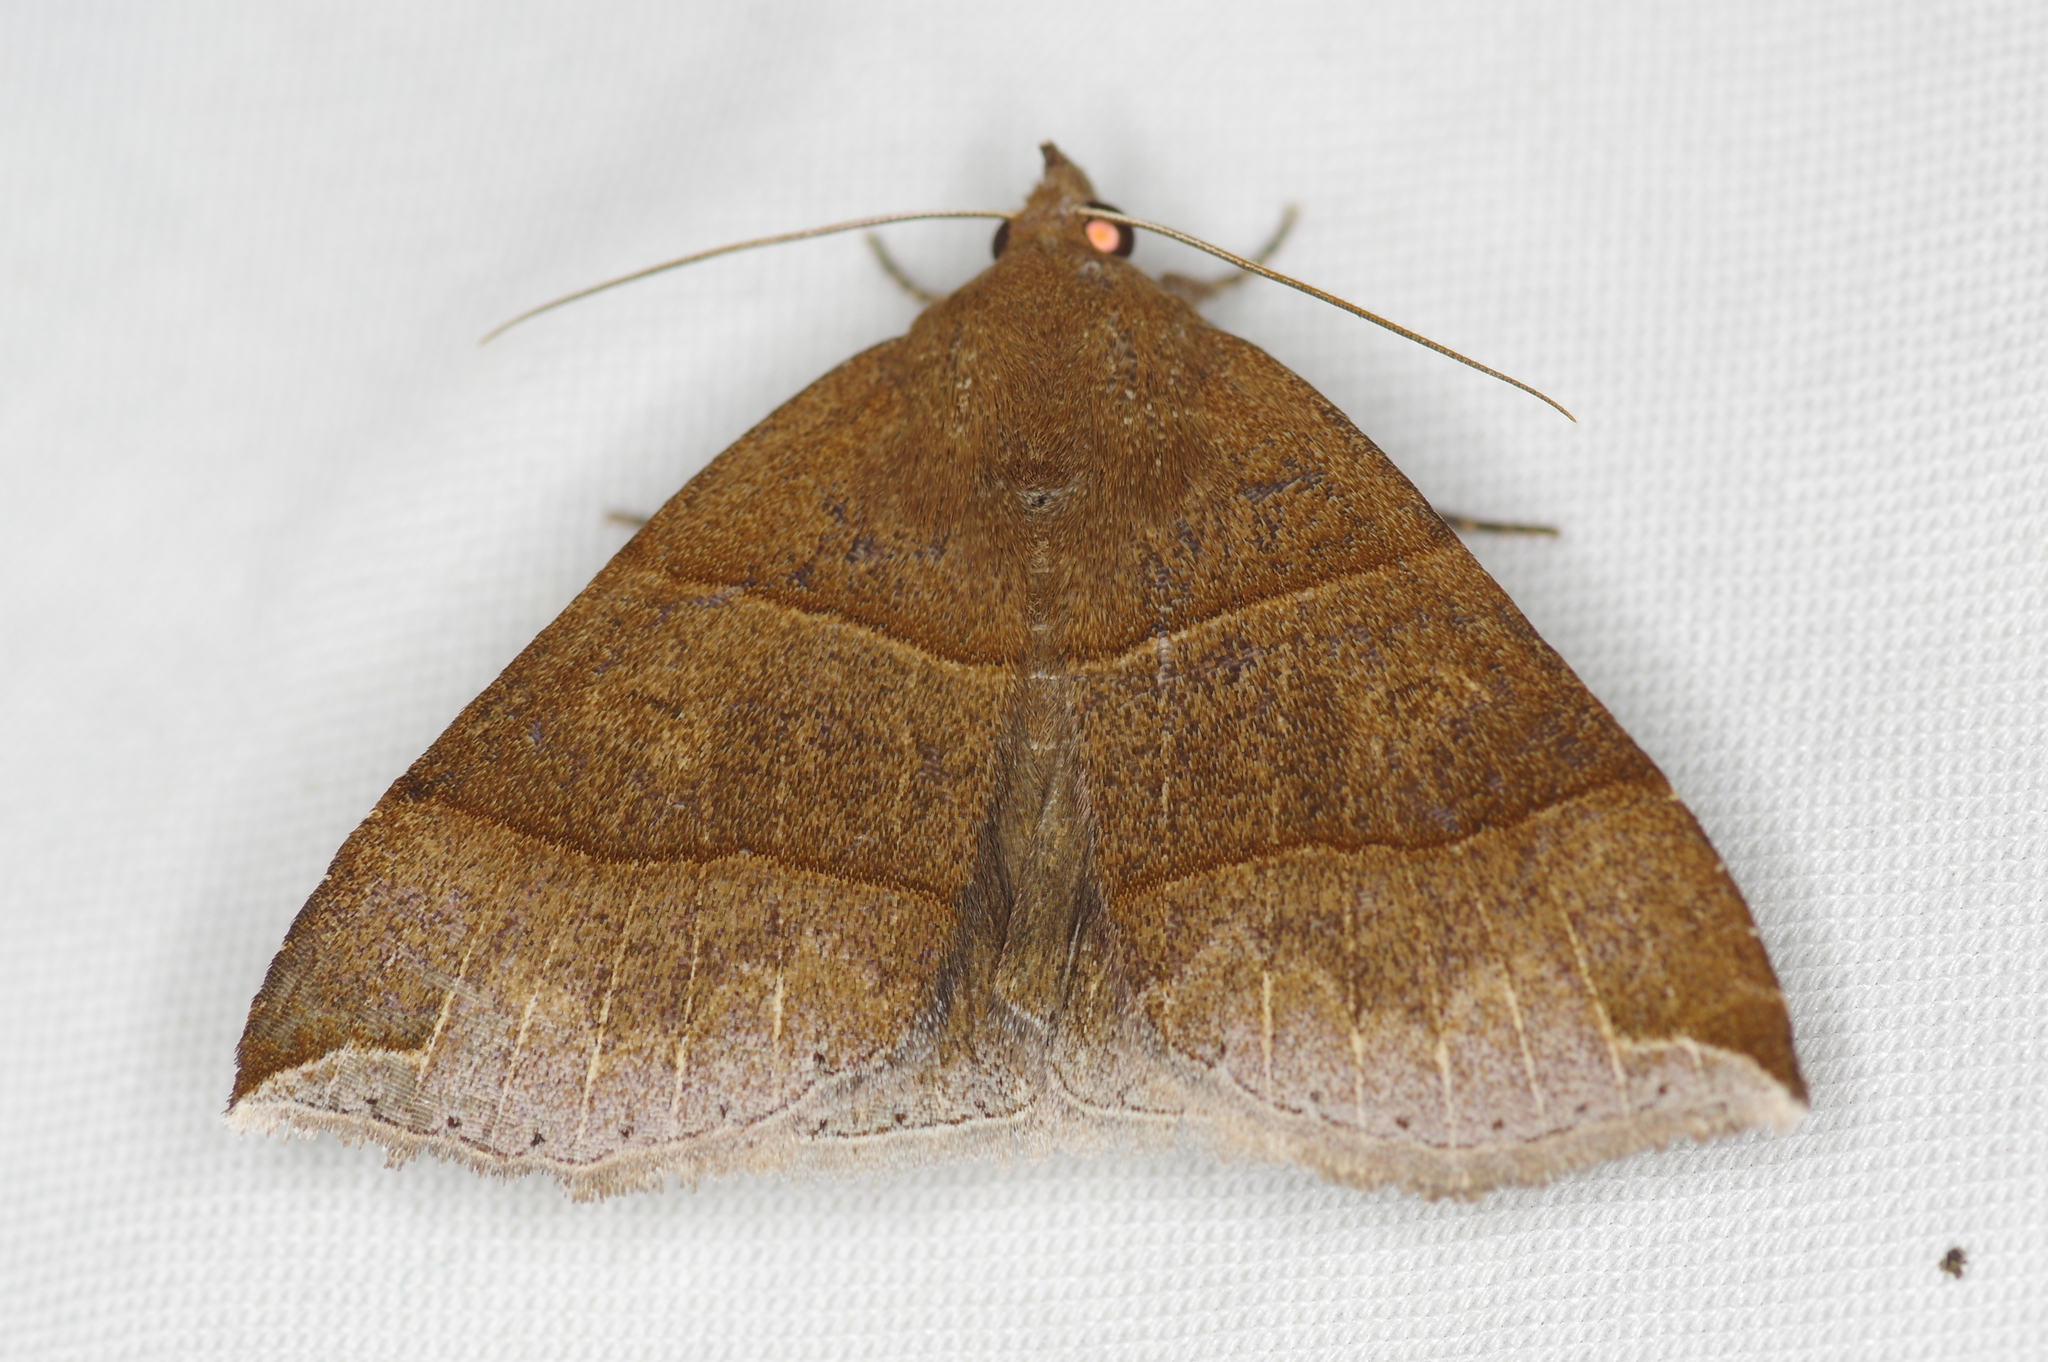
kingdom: Animalia
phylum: Arthropoda
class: Insecta
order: Lepidoptera
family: Erebidae
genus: Parallelia
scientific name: Parallelia bistriaris
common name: Maple looper moth
